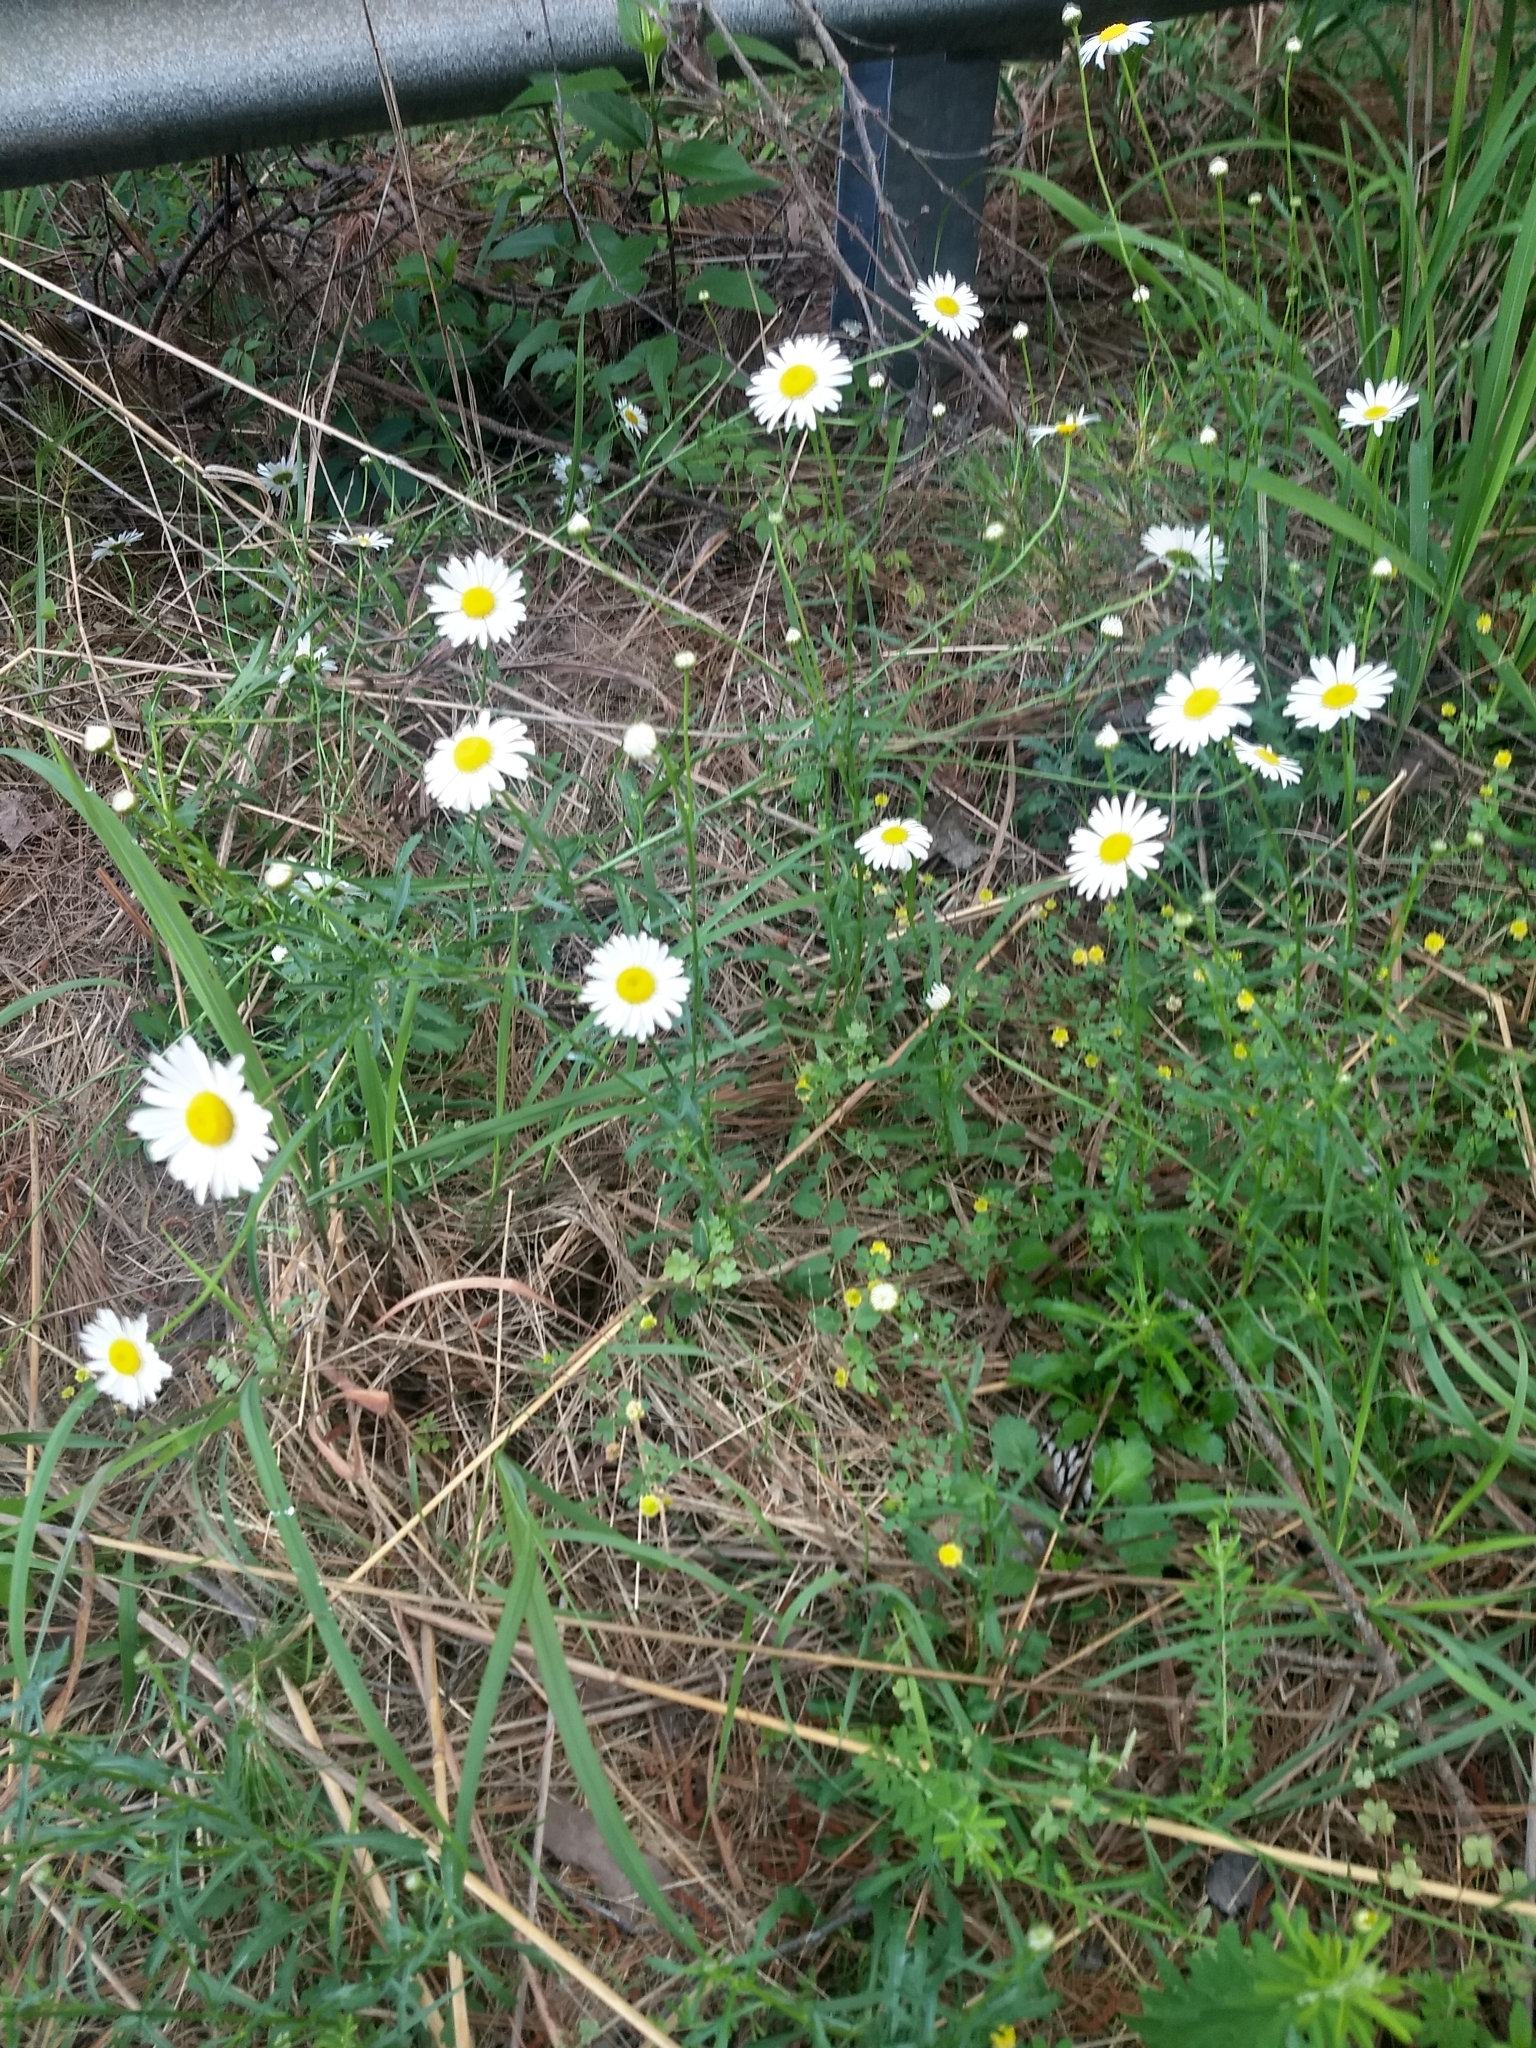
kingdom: Plantae
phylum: Tracheophyta
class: Magnoliopsida
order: Asterales
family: Asteraceae
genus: Leucanthemum
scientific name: Leucanthemum vulgare
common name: Oxeye daisy
